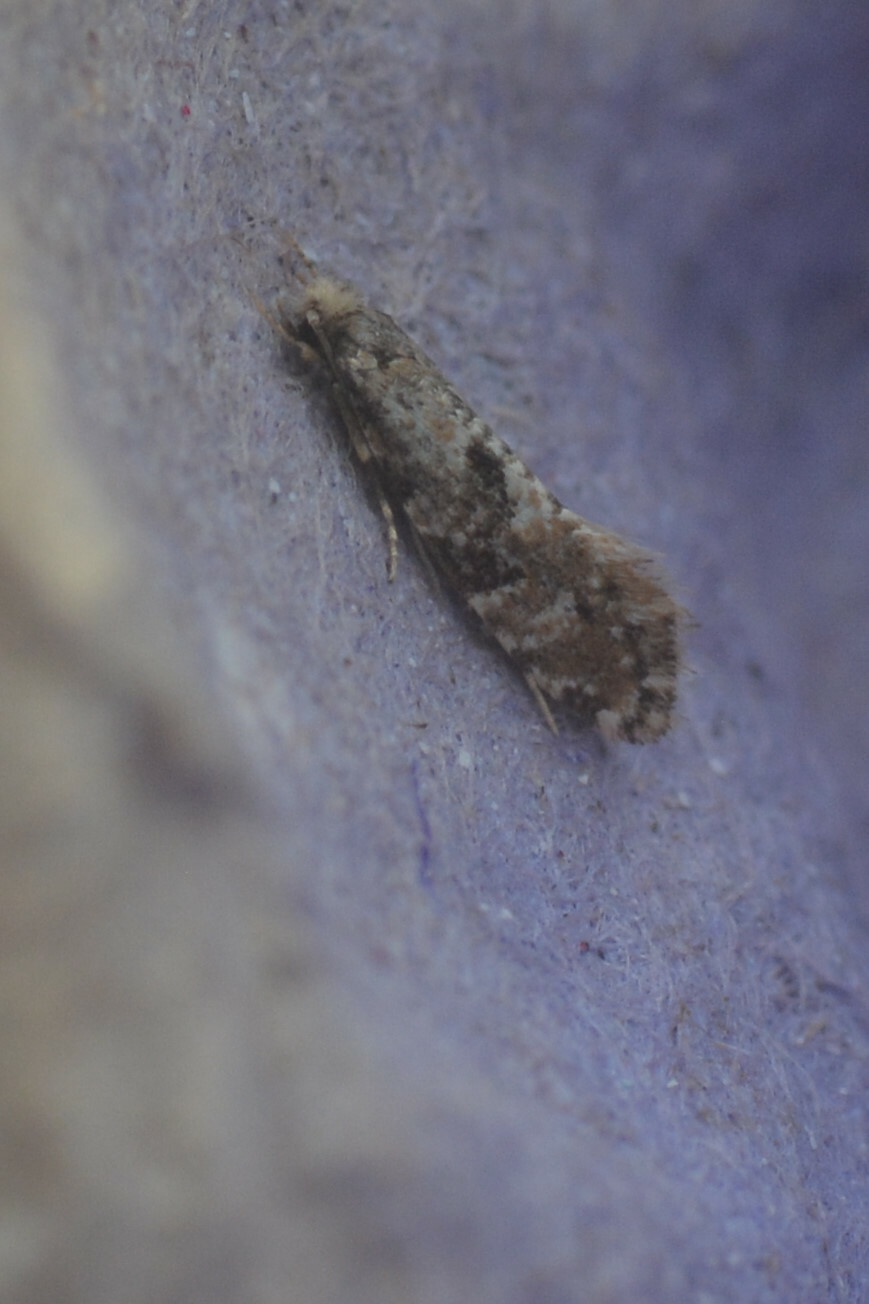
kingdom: Animalia
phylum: Arthropoda
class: Insecta
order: Lepidoptera
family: Tineidae
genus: Nemaxera
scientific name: Nemaxera betulinella
